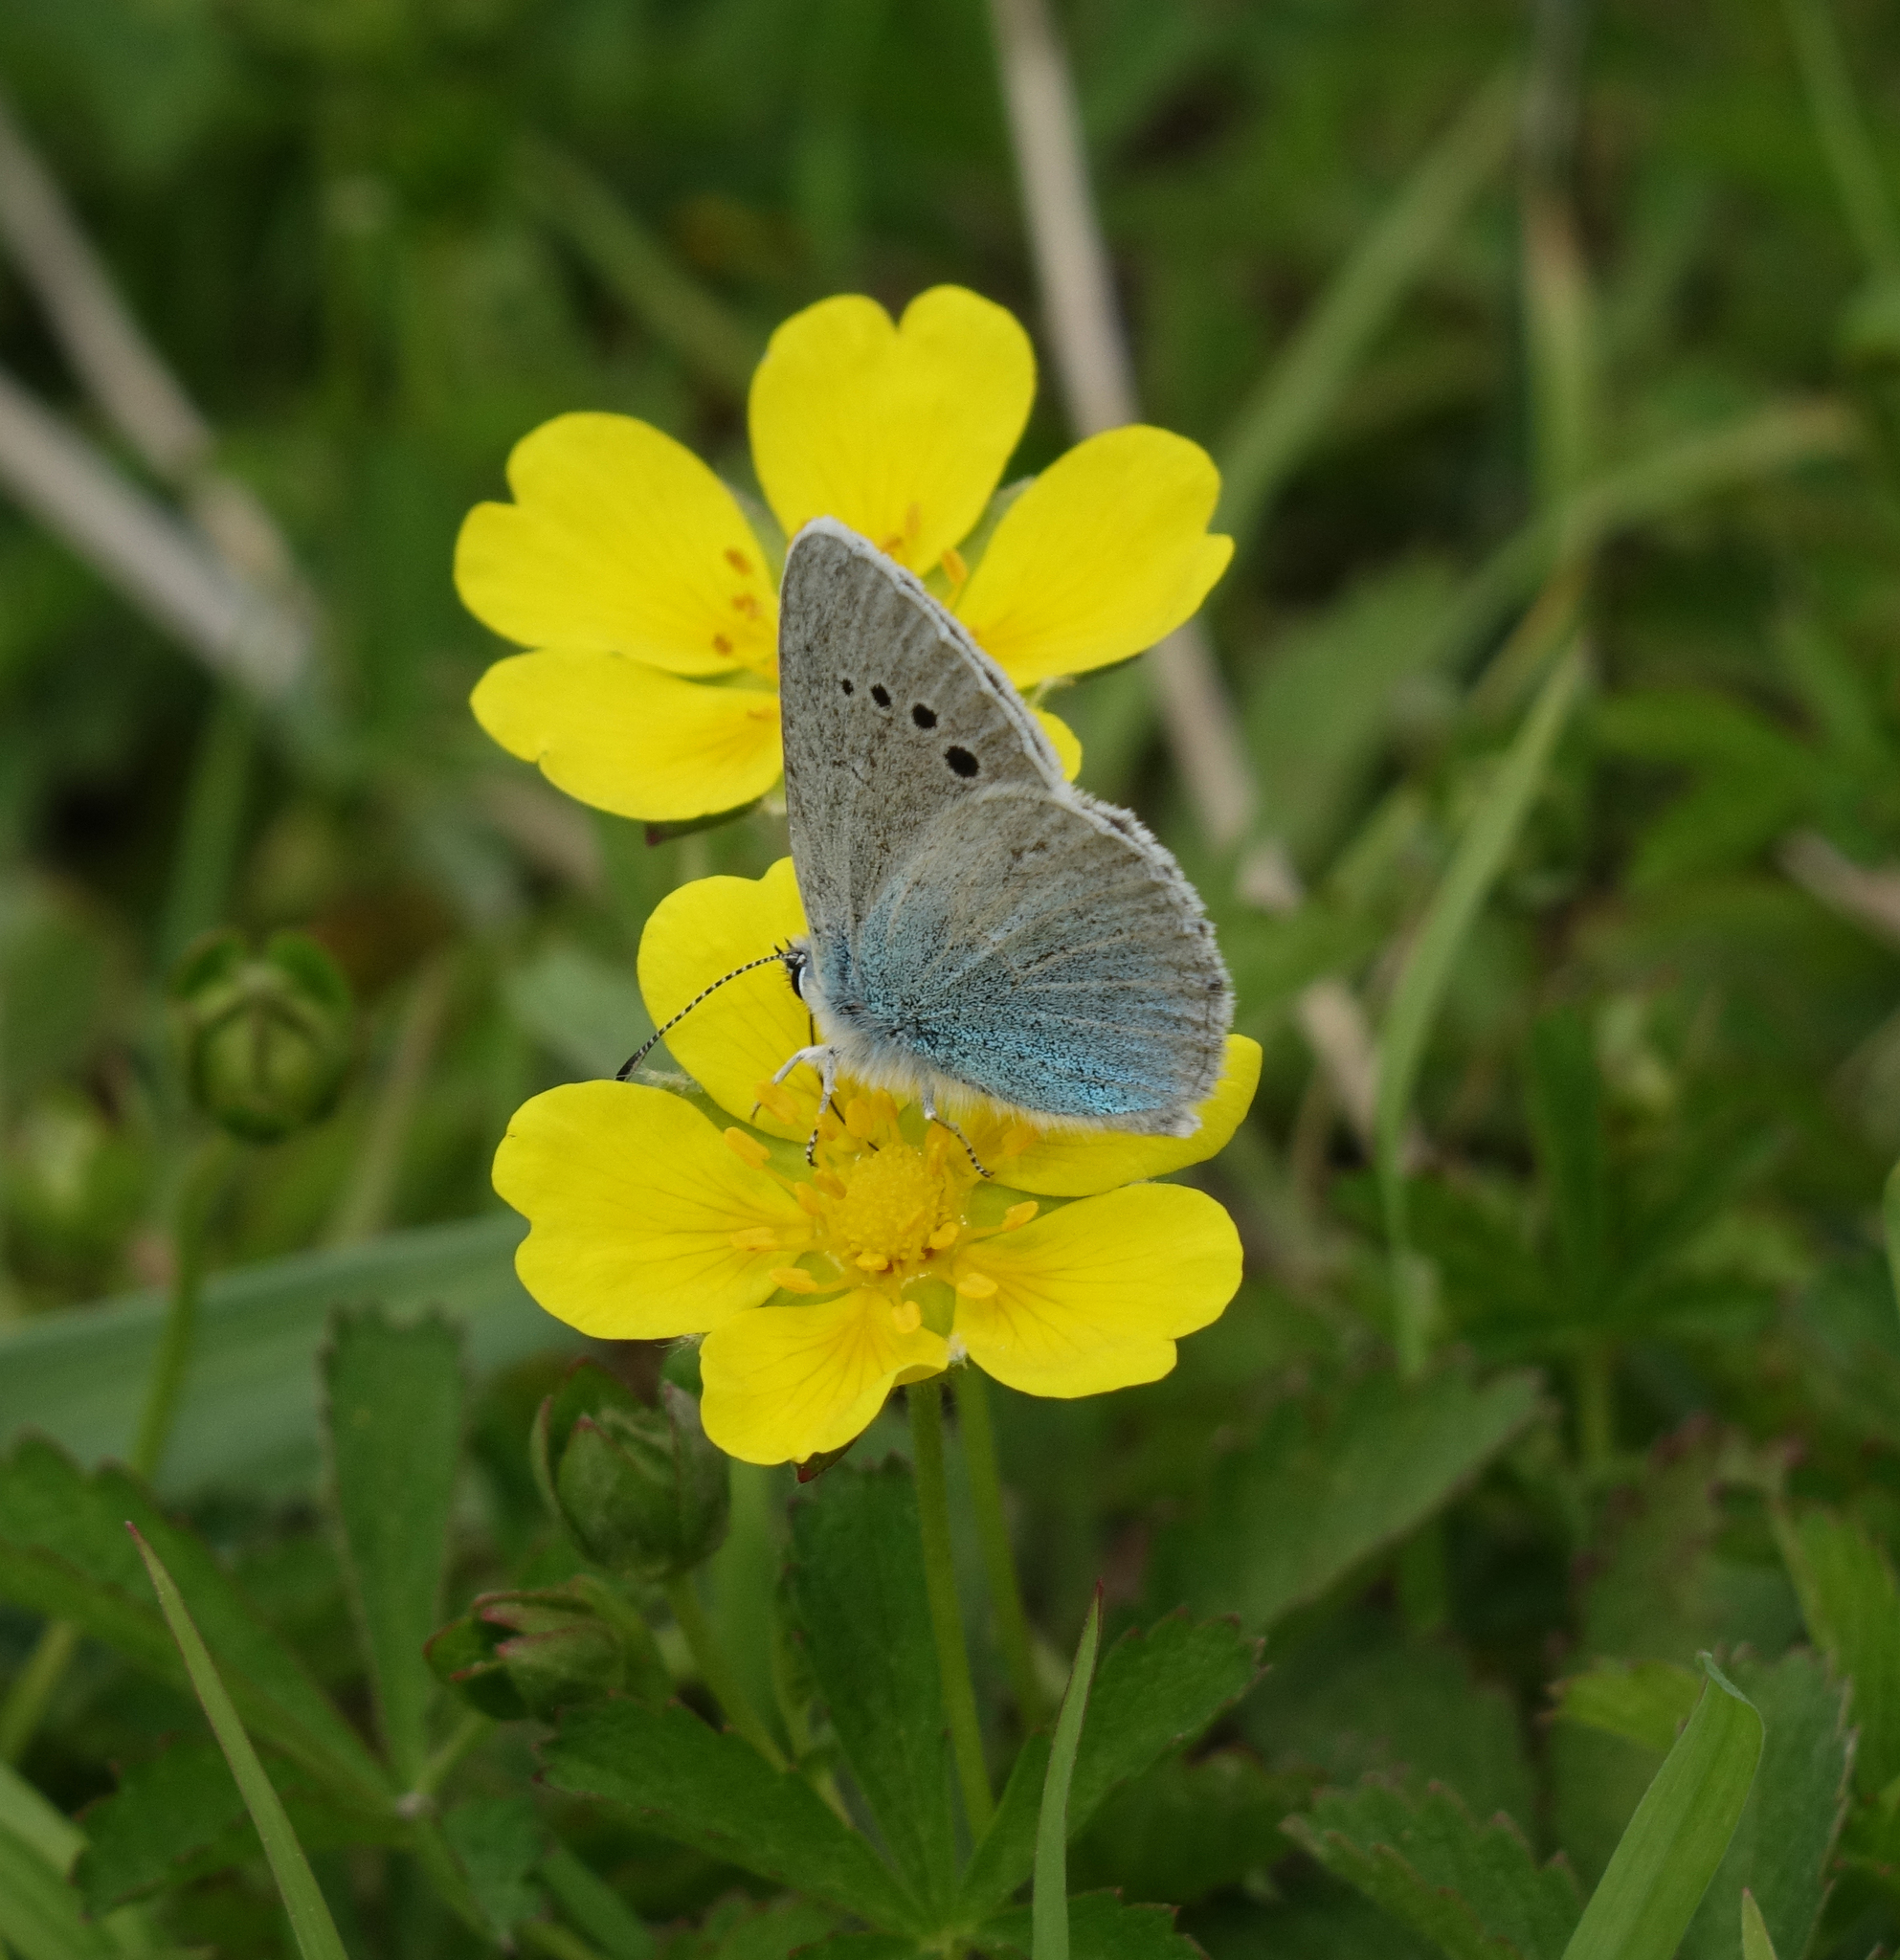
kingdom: Animalia
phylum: Arthropoda
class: Insecta
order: Lepidoptera
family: Lycaenidae
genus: Glaucopsyche
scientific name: Glaucopsyche alexis
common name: Green-underside blue
